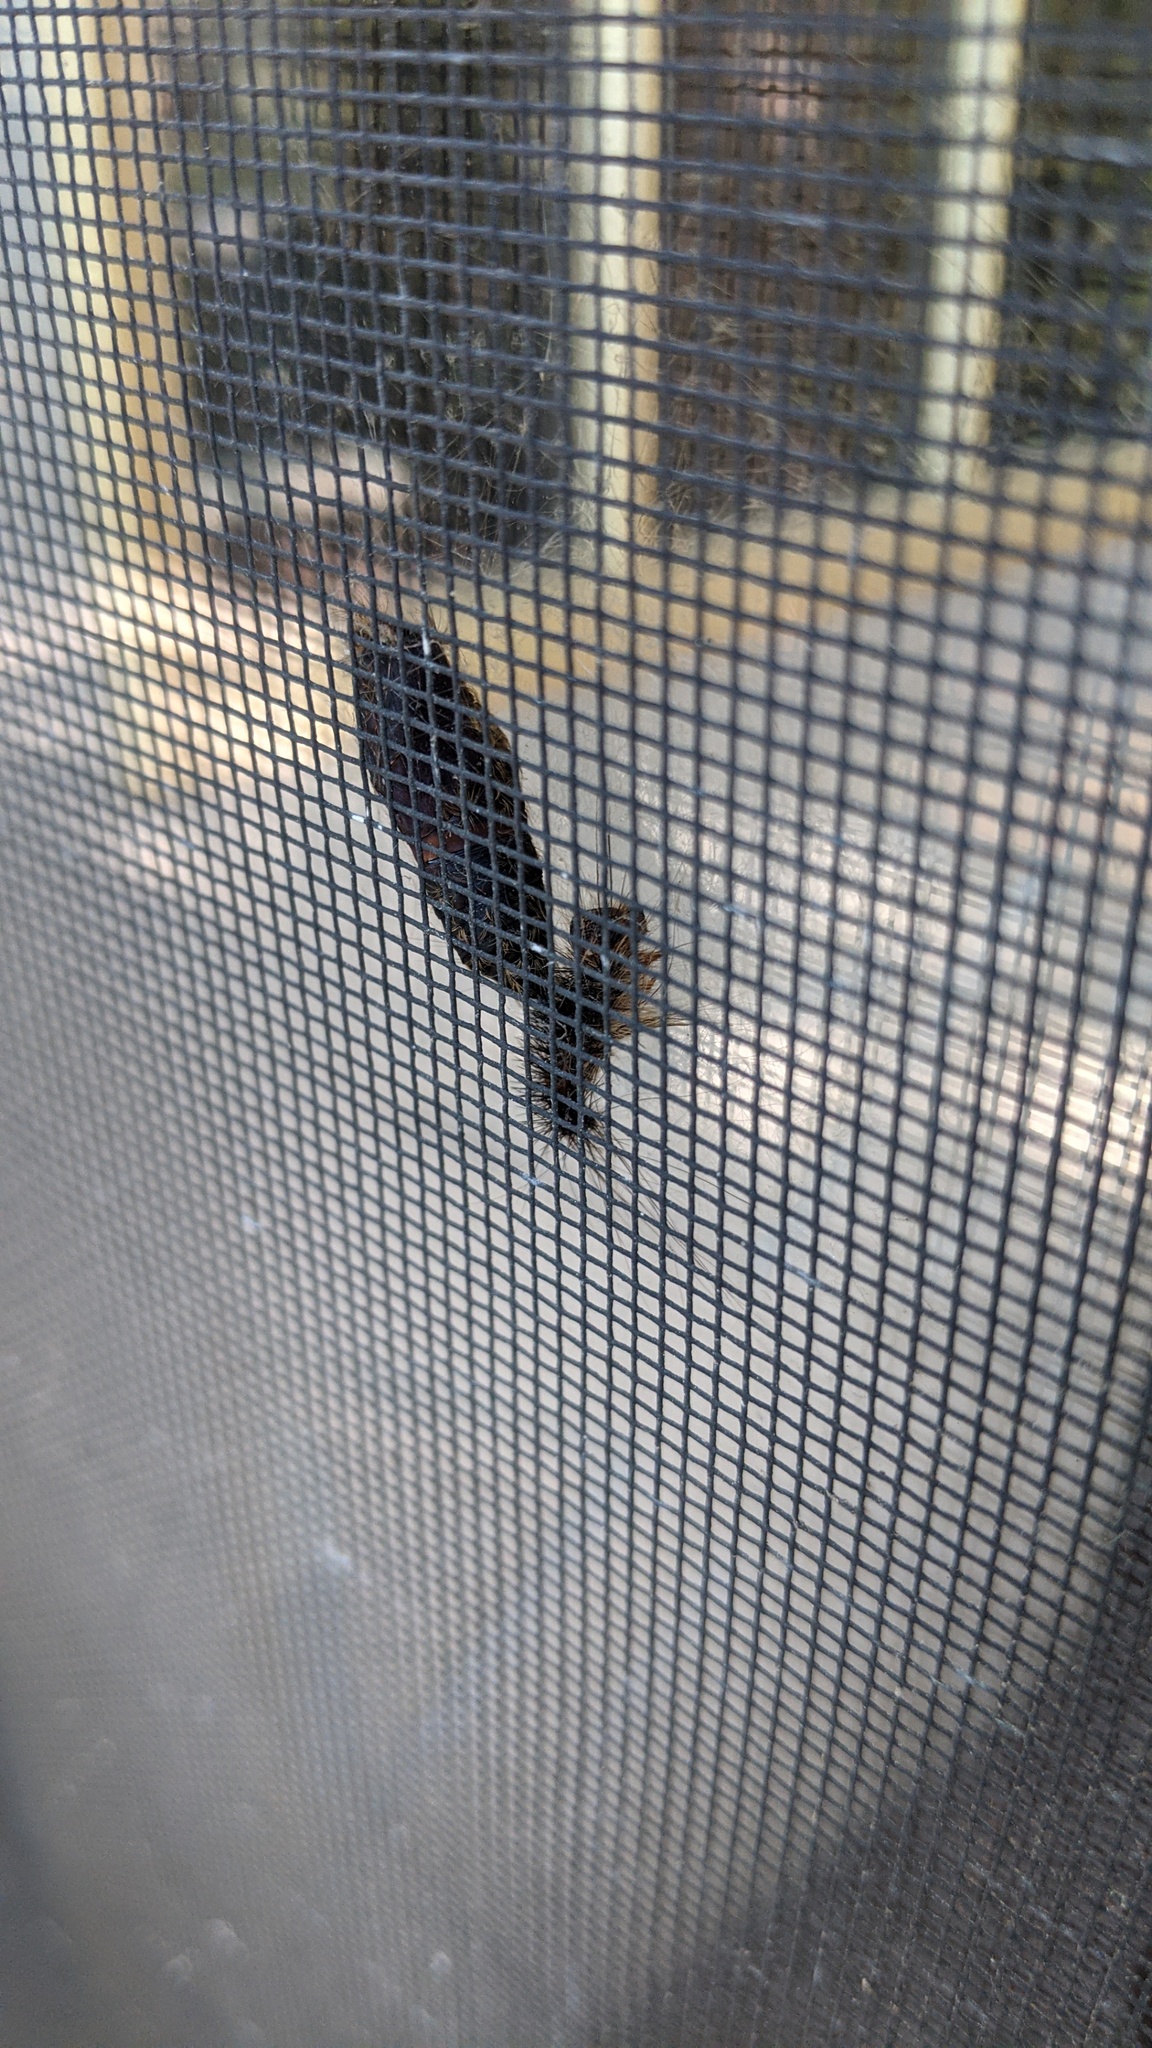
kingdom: Animalia
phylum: Arthropoda
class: Insecta
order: Lepidoptera
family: Erebidae
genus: Lymantria
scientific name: Lymantria dispar
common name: Gypsy moth
